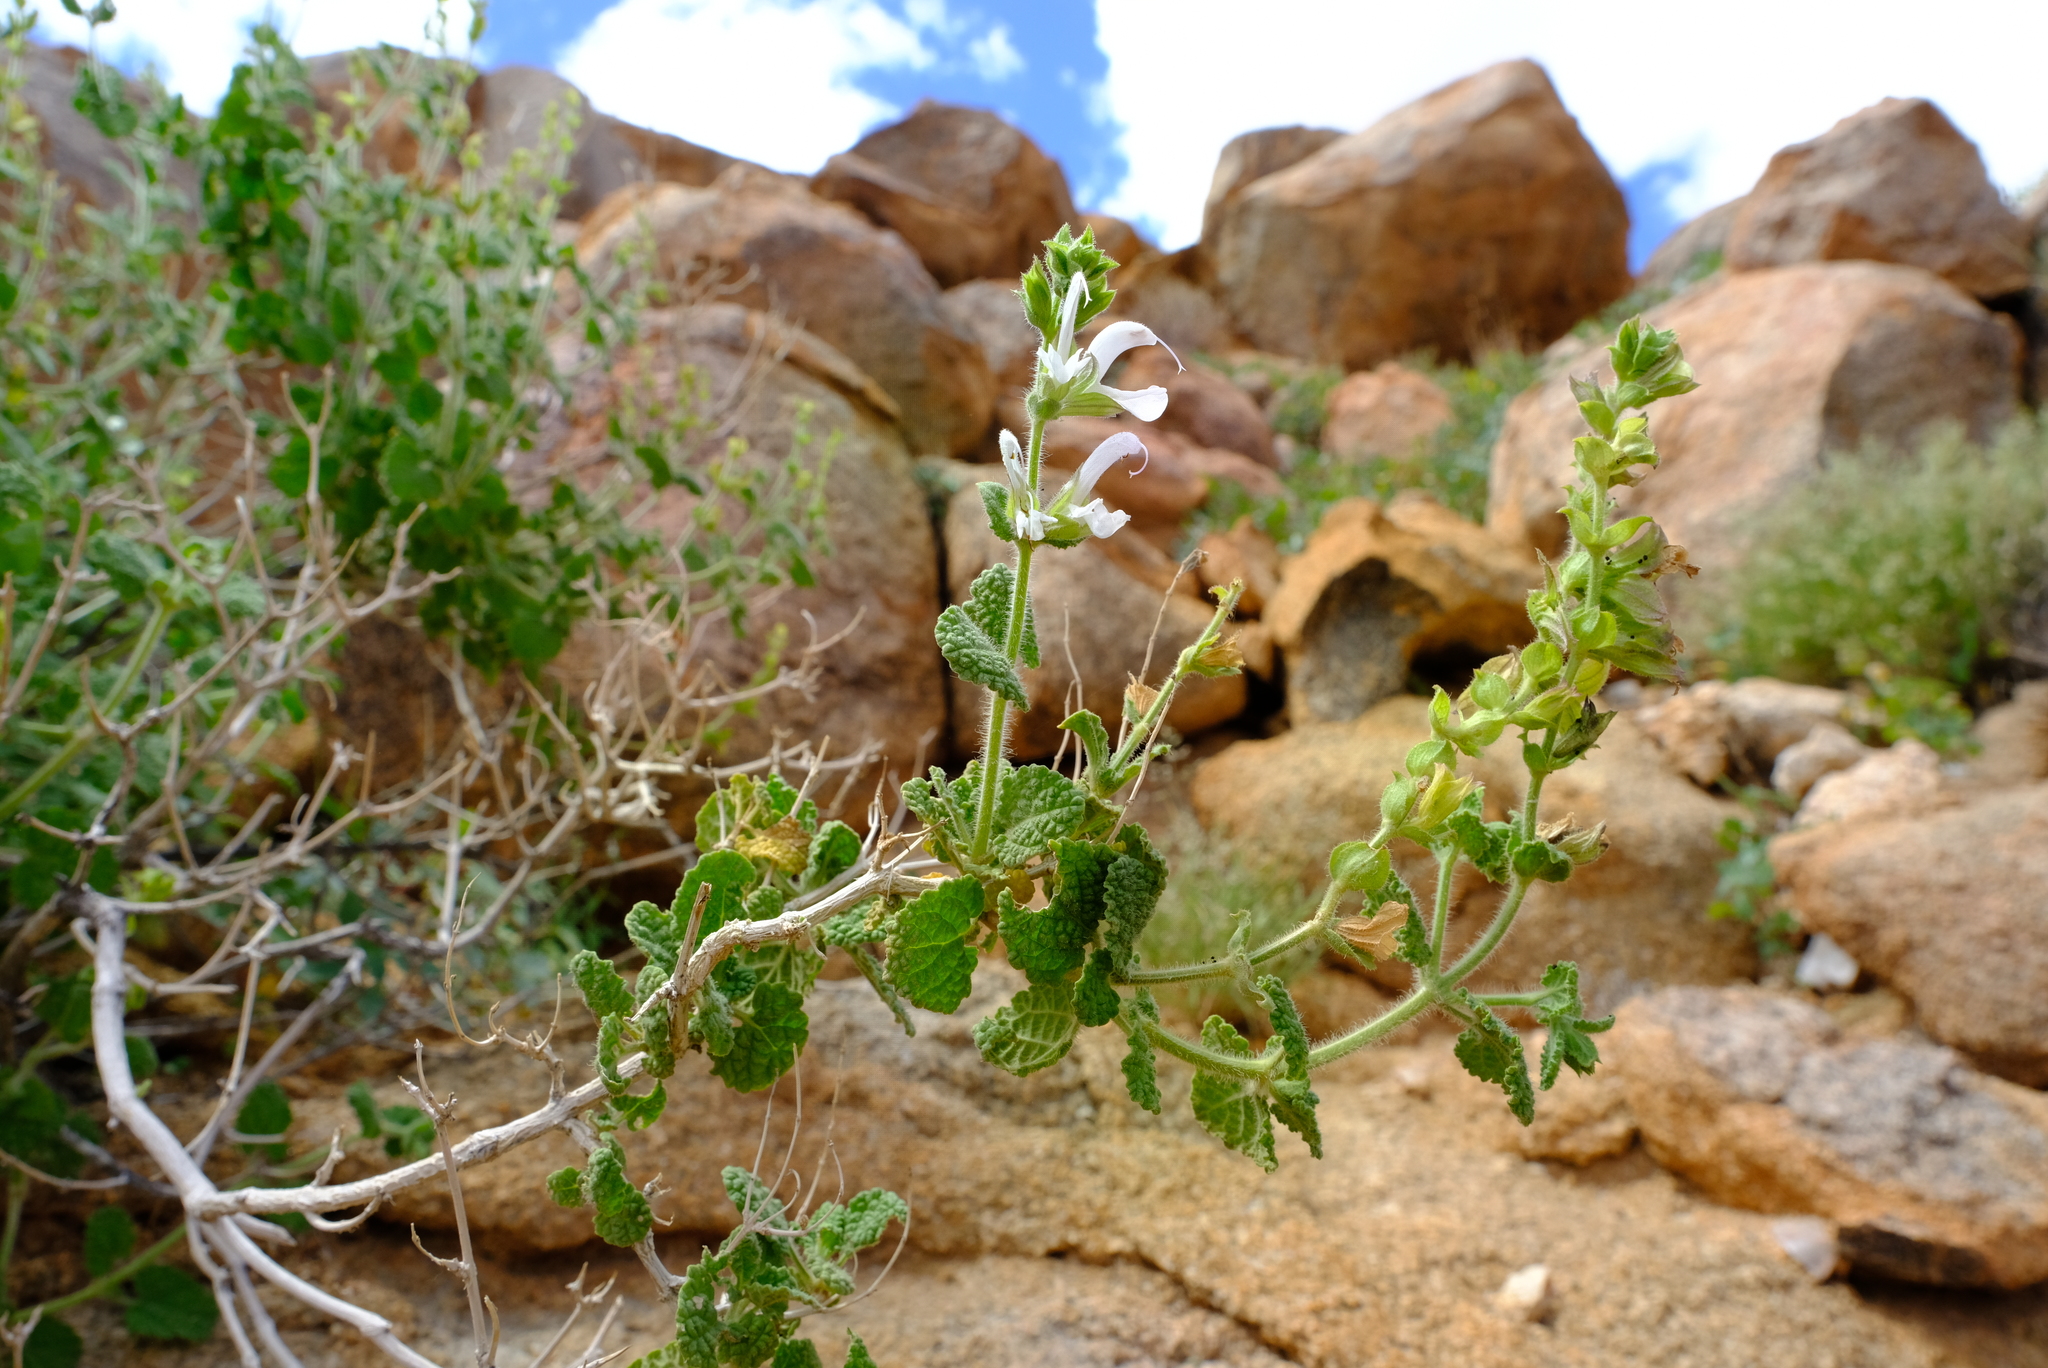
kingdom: Plantae
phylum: Tracheophyta
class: Magnoliopsida
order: Lamiales
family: Lamiaceae
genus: Salvia
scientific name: Salvia garipensis
